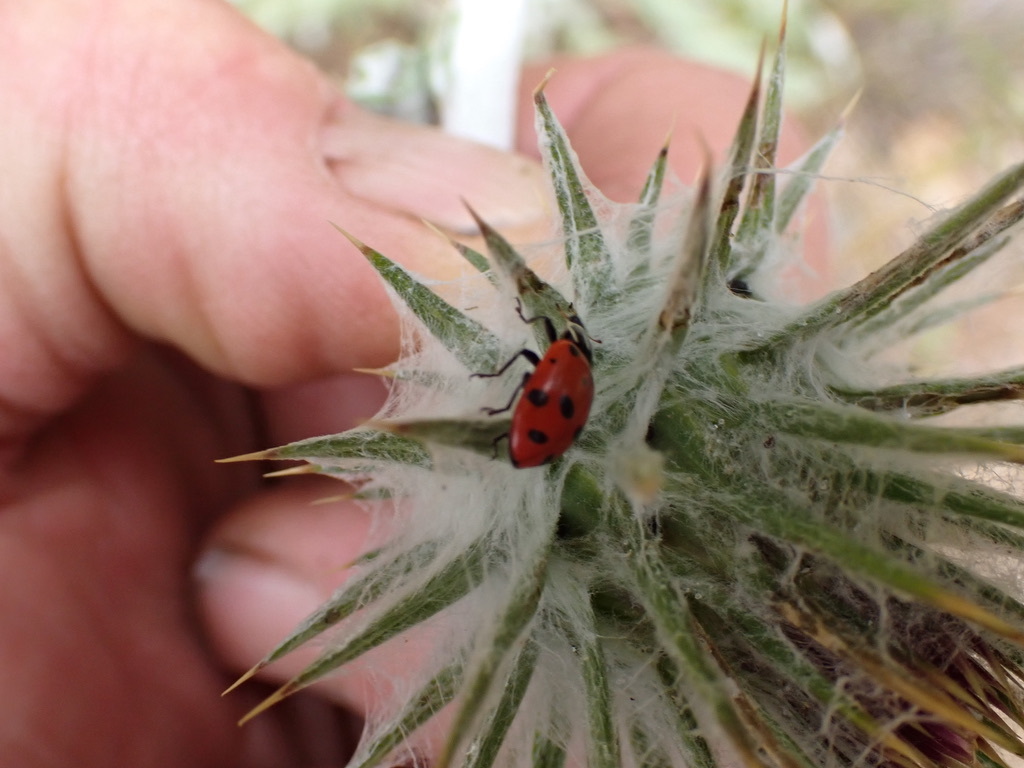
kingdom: Animalia
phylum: Arthropoda
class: Insecta
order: Coleoptera
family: Coccinellidae
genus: Hippodamia
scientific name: Hippodamia convergens
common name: Convergent lady beetle
